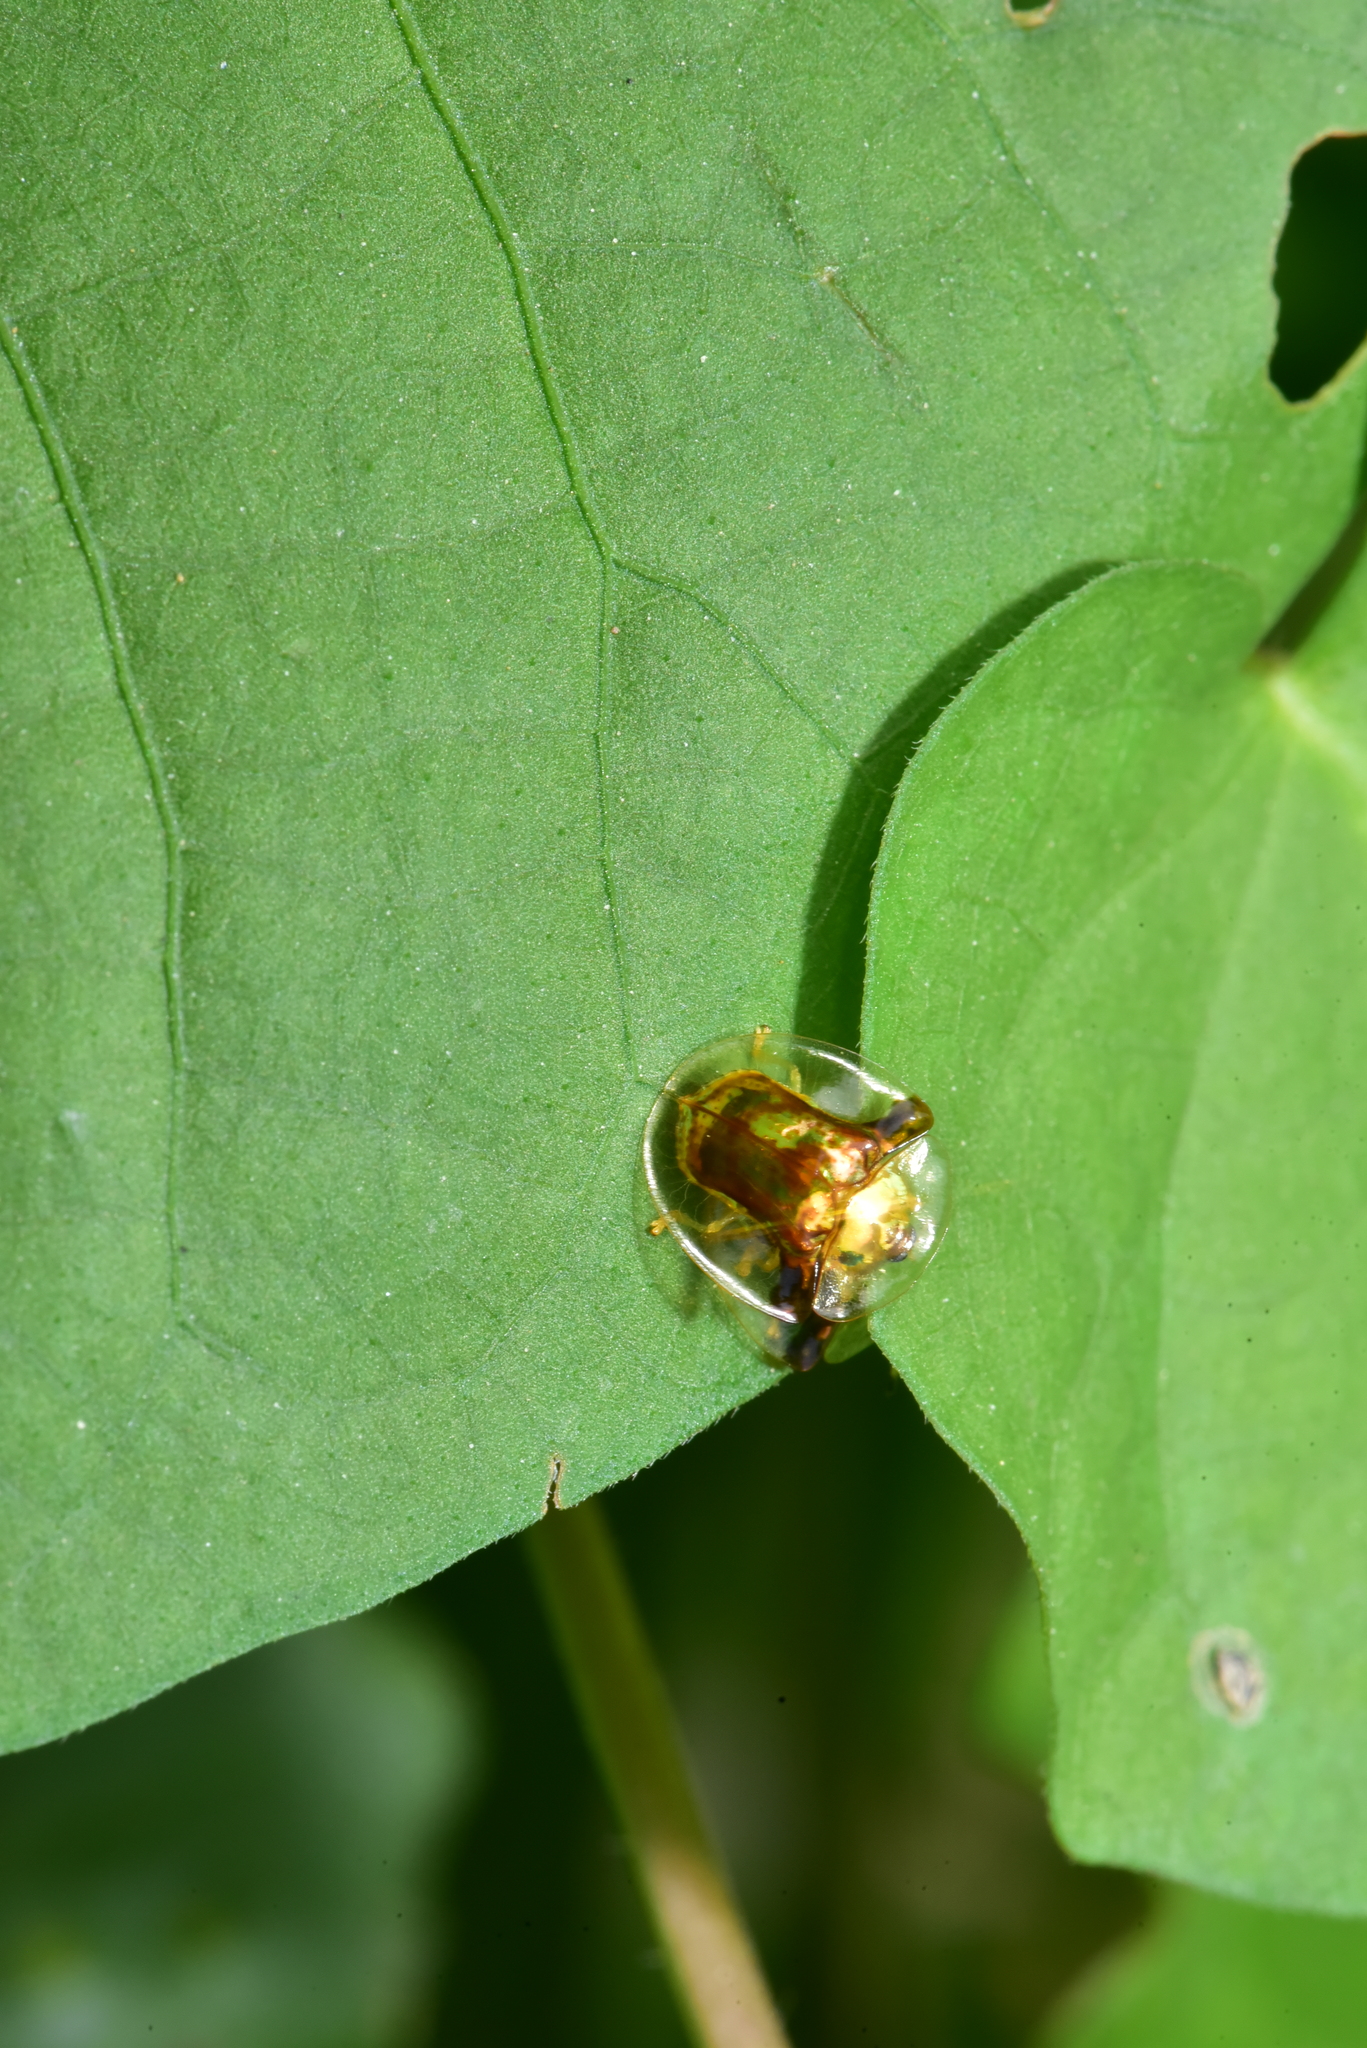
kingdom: Animalia
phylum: Arthropoda
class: Insecta
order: Coleoptera
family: Chrysomelidae
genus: Aspidimorpha
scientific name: Aspidimorpha furcata
